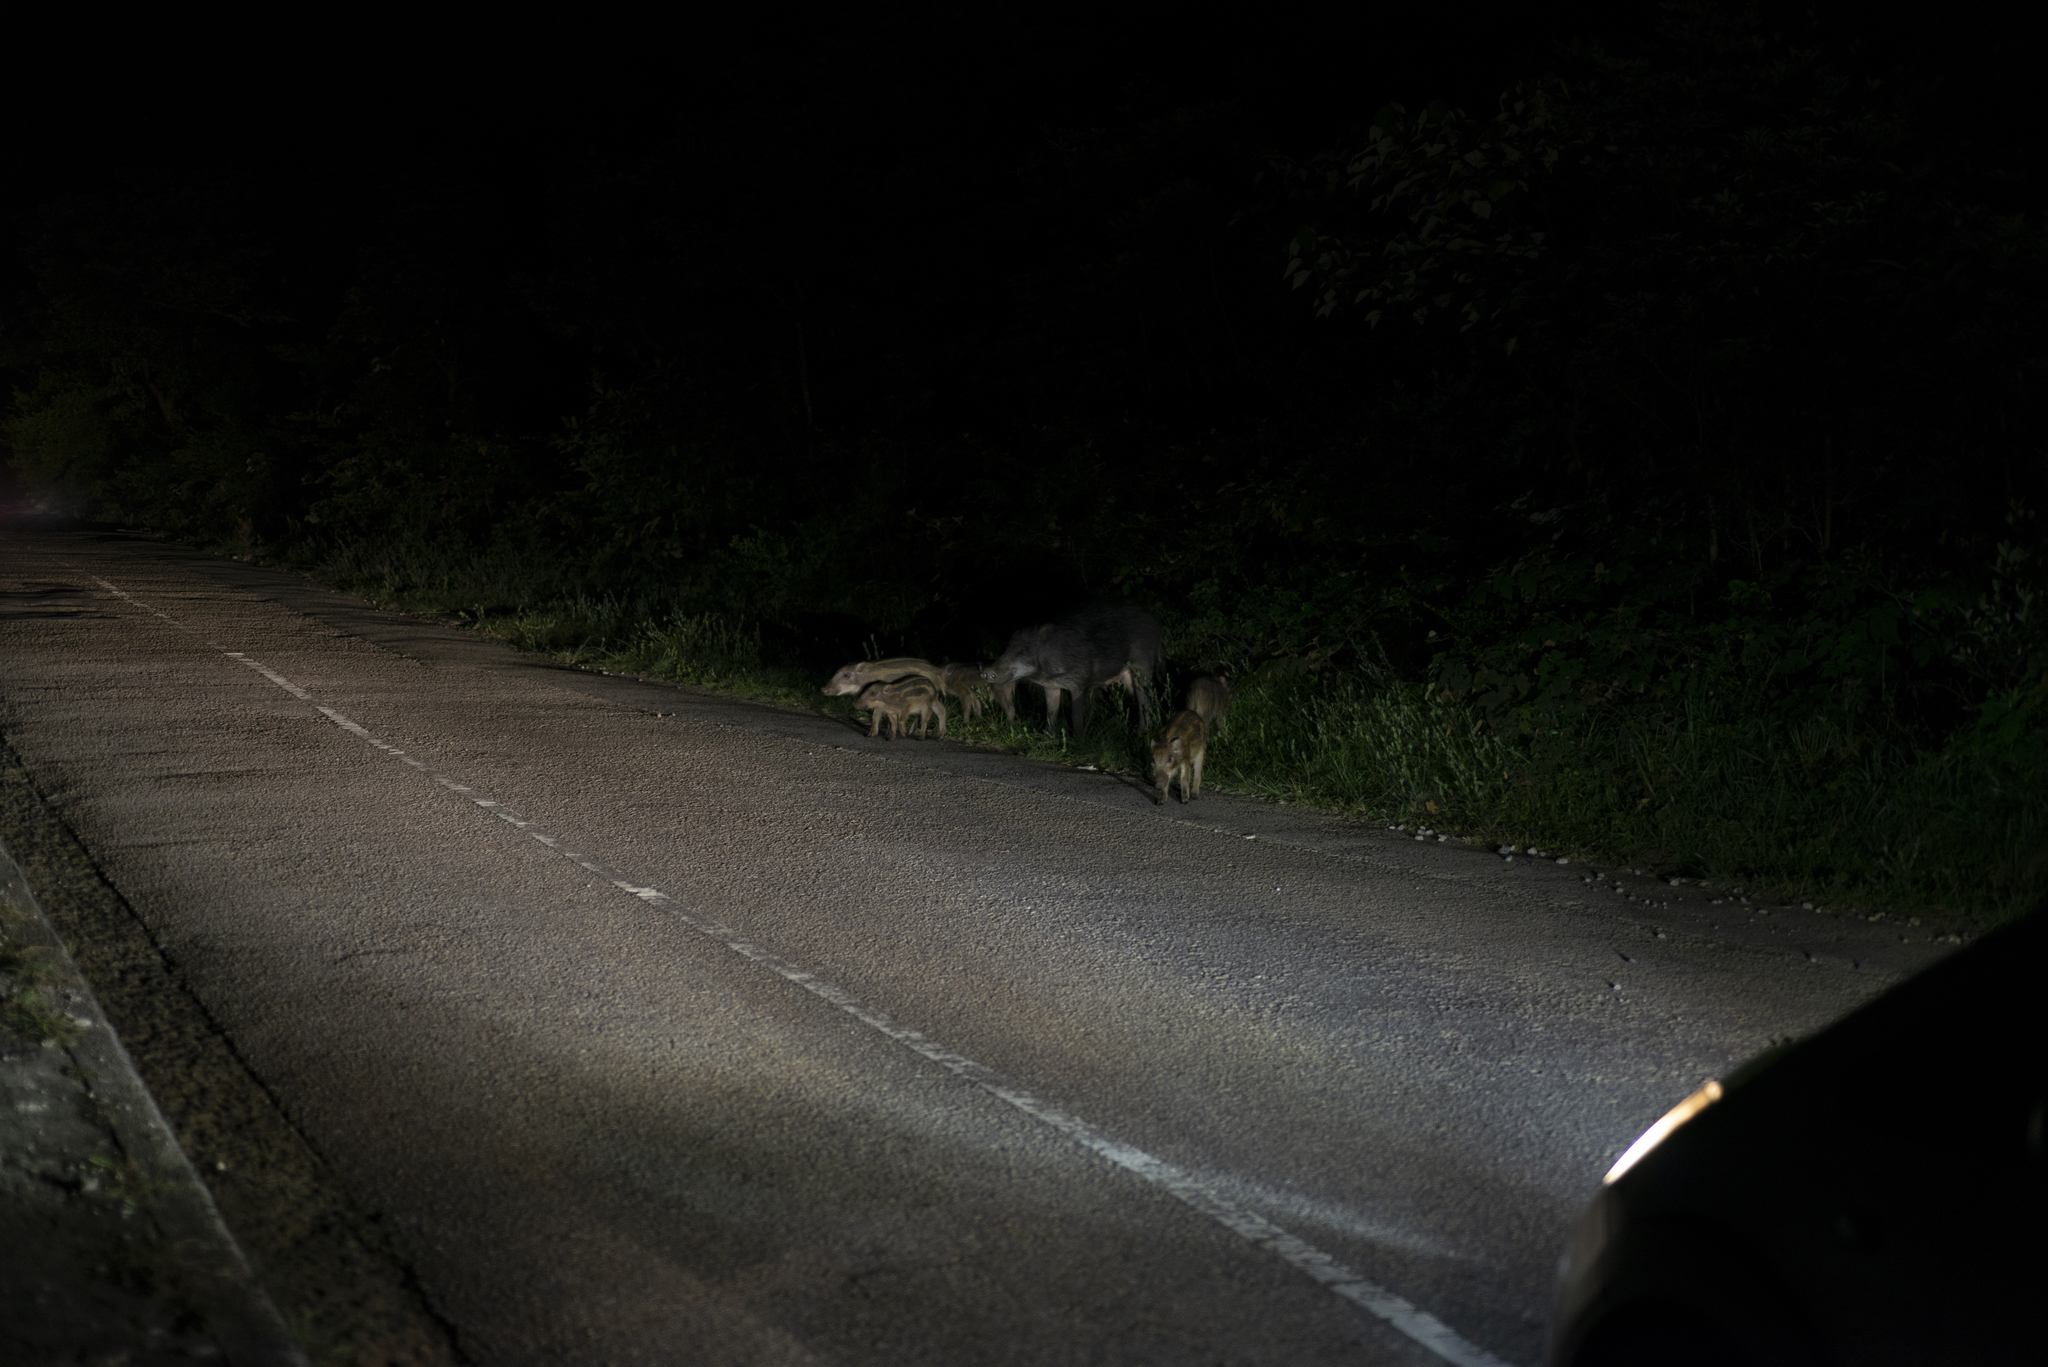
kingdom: Animalia
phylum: Chordata
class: Mammalia
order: Artiodactyla
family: Suidae
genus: Sus
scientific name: Sus scrofa
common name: Wild boar
